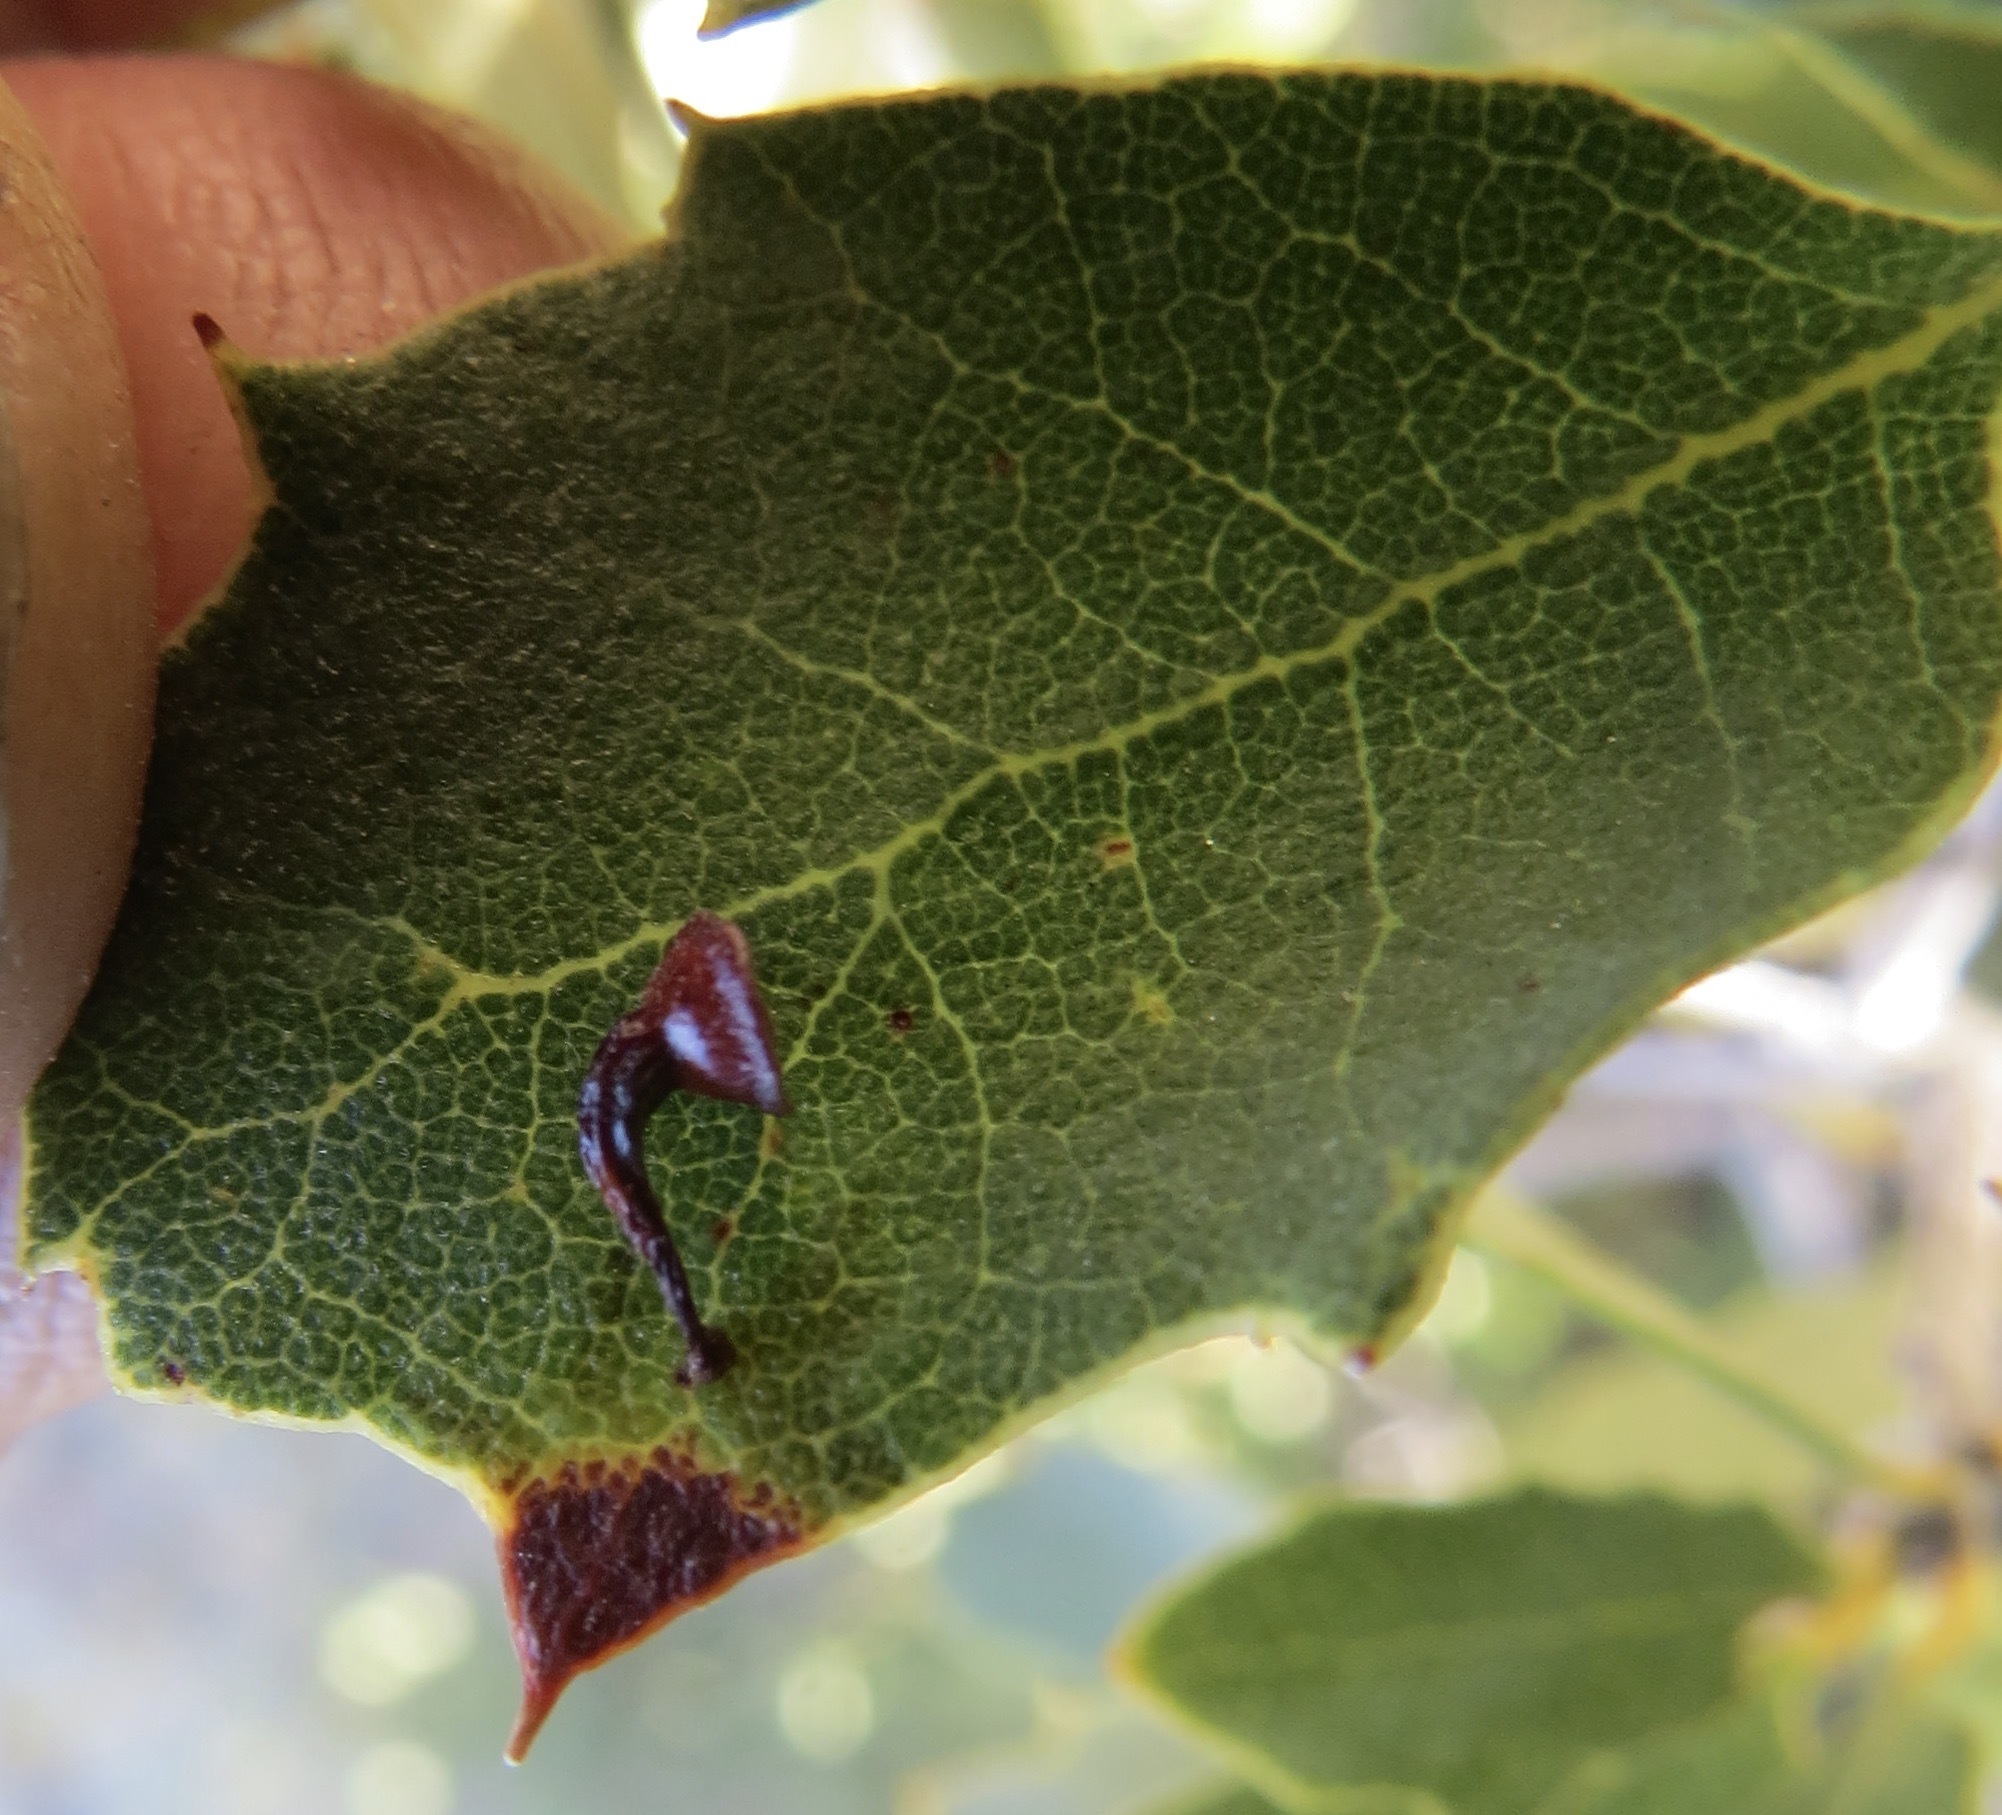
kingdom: Animalia
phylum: Arthropoda
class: Insecta
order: Hymenoptera
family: Cynipidae
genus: Andricus
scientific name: Andricus
